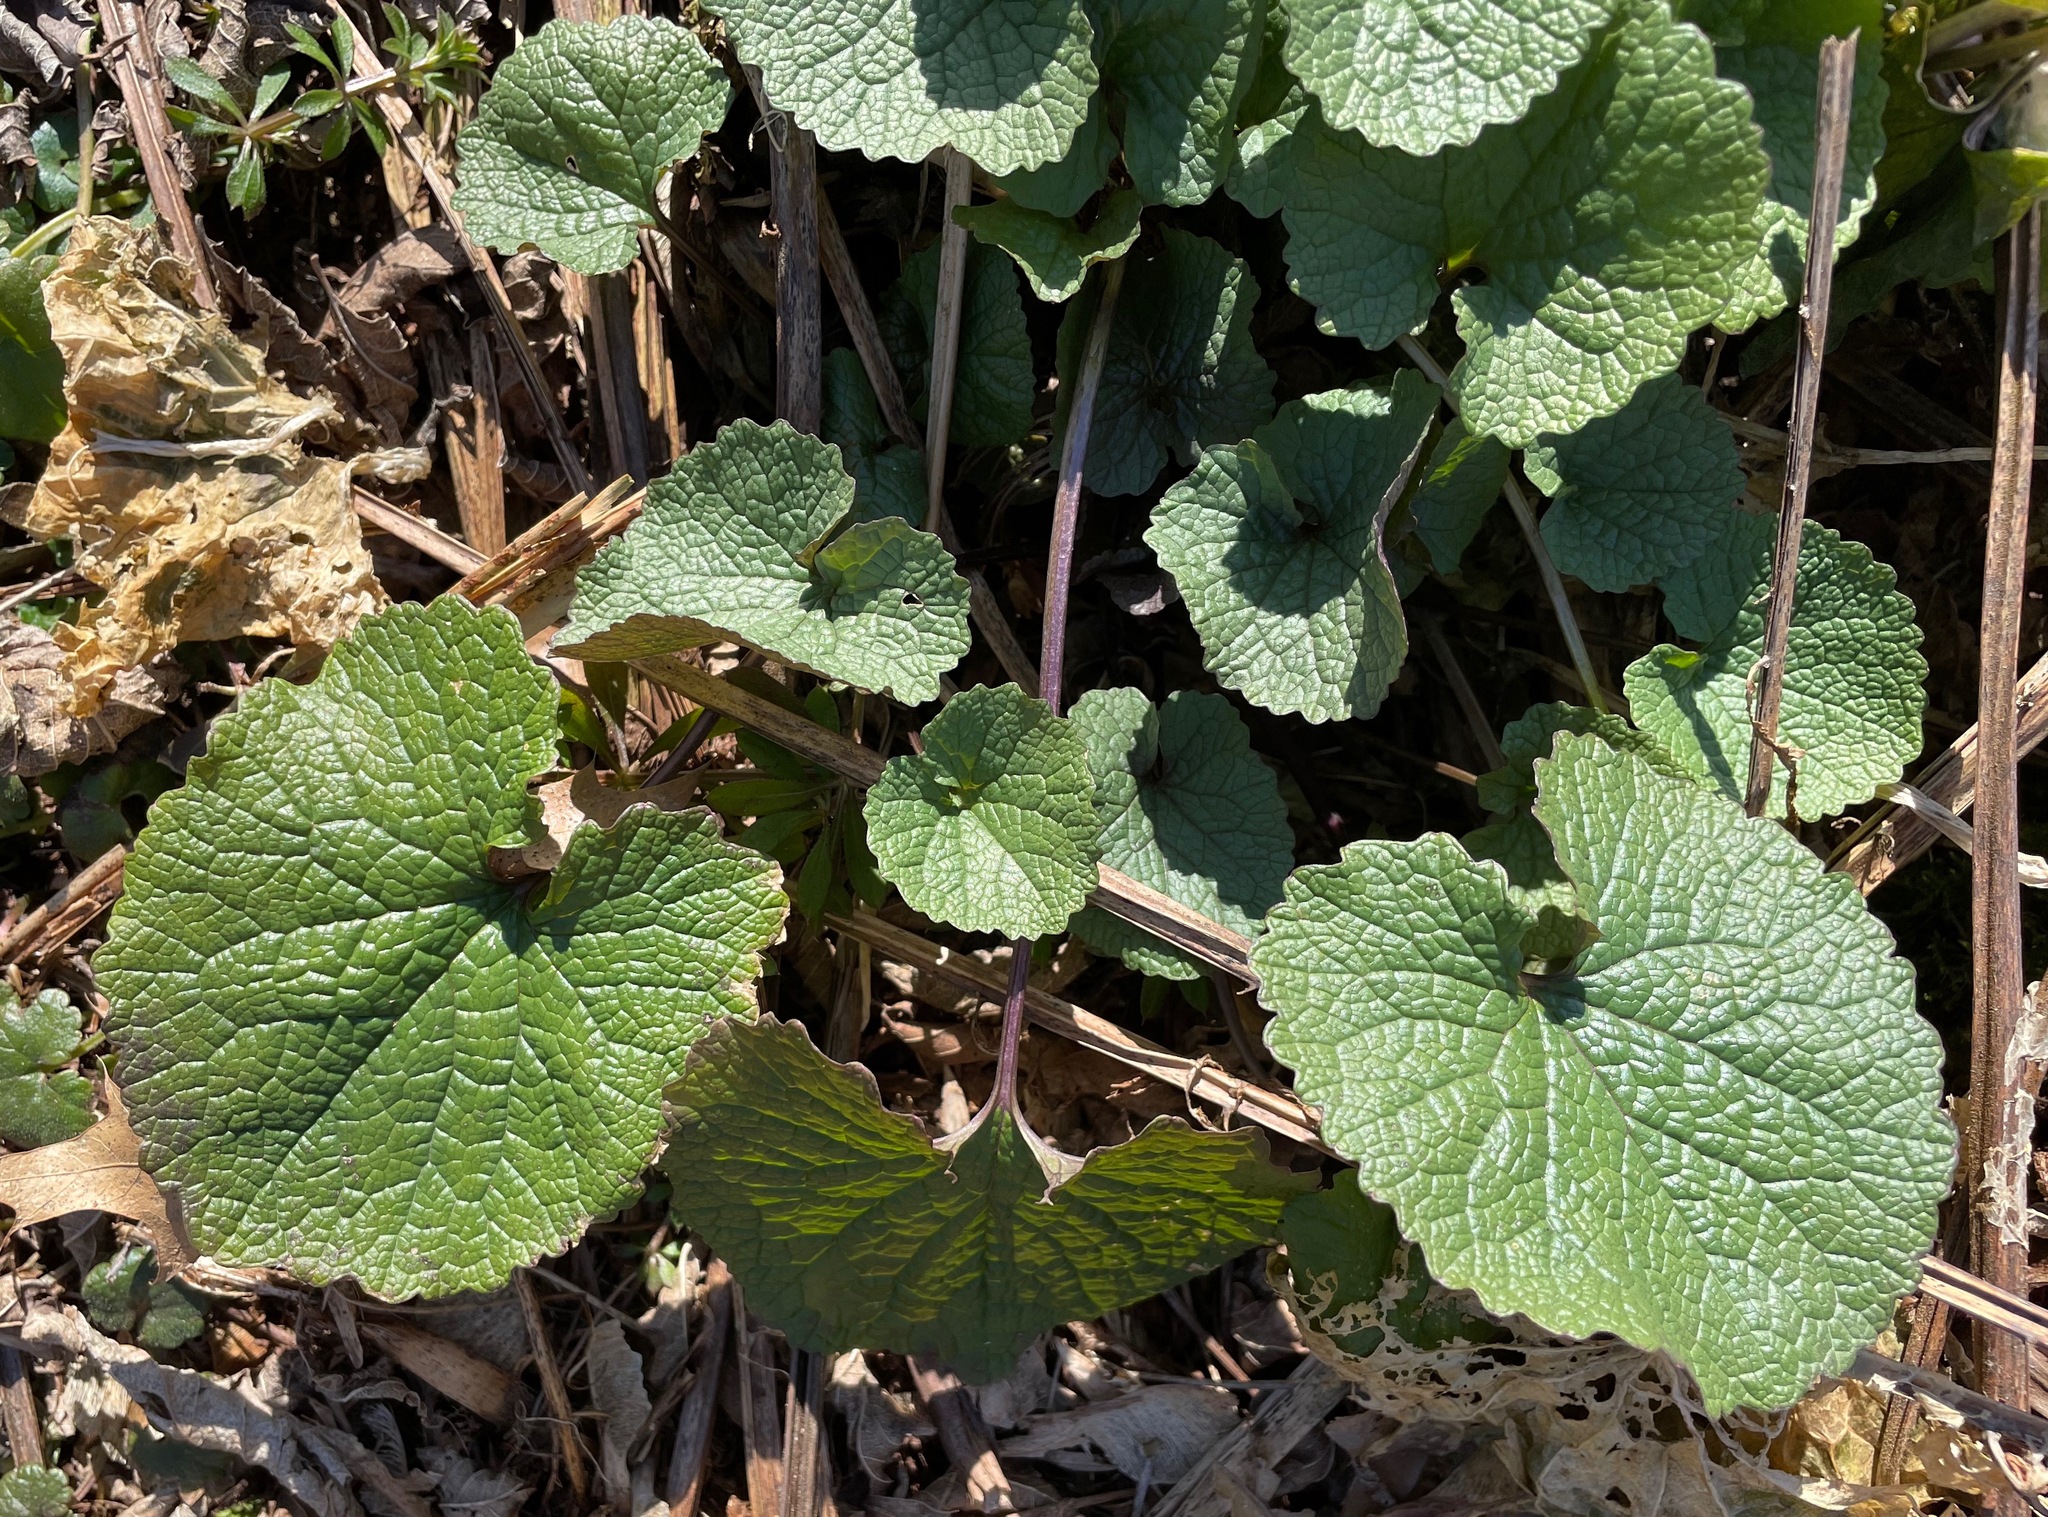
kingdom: Plantae
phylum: Tracheophyta
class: Magnoliopsida
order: Brassicales
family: Brassicaceae
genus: Alliaria
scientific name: Alliaria petiolata
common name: Garlic mustard
